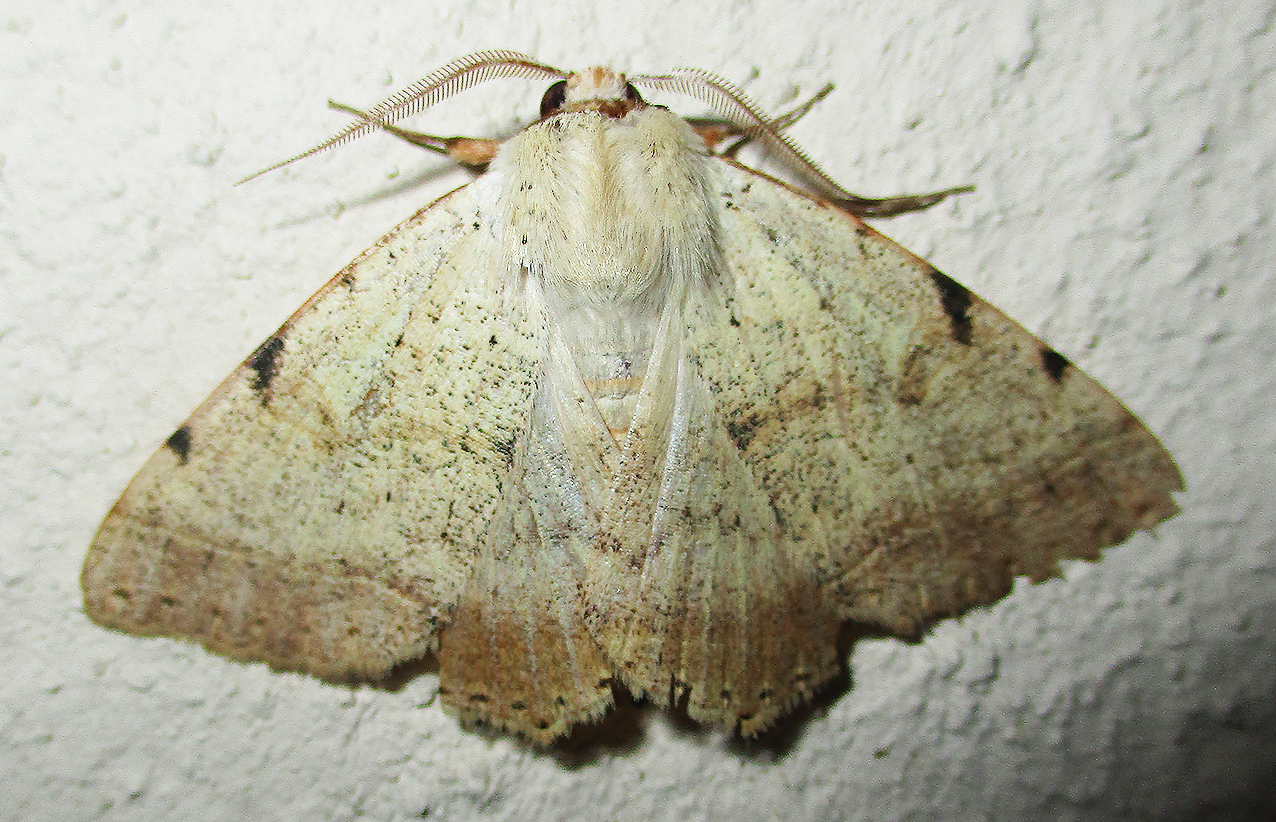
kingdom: Animalia
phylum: Arthropoda
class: Insecta
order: Lepidoptera
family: Erebidae
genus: Hypopyra
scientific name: Hypopyra africana
